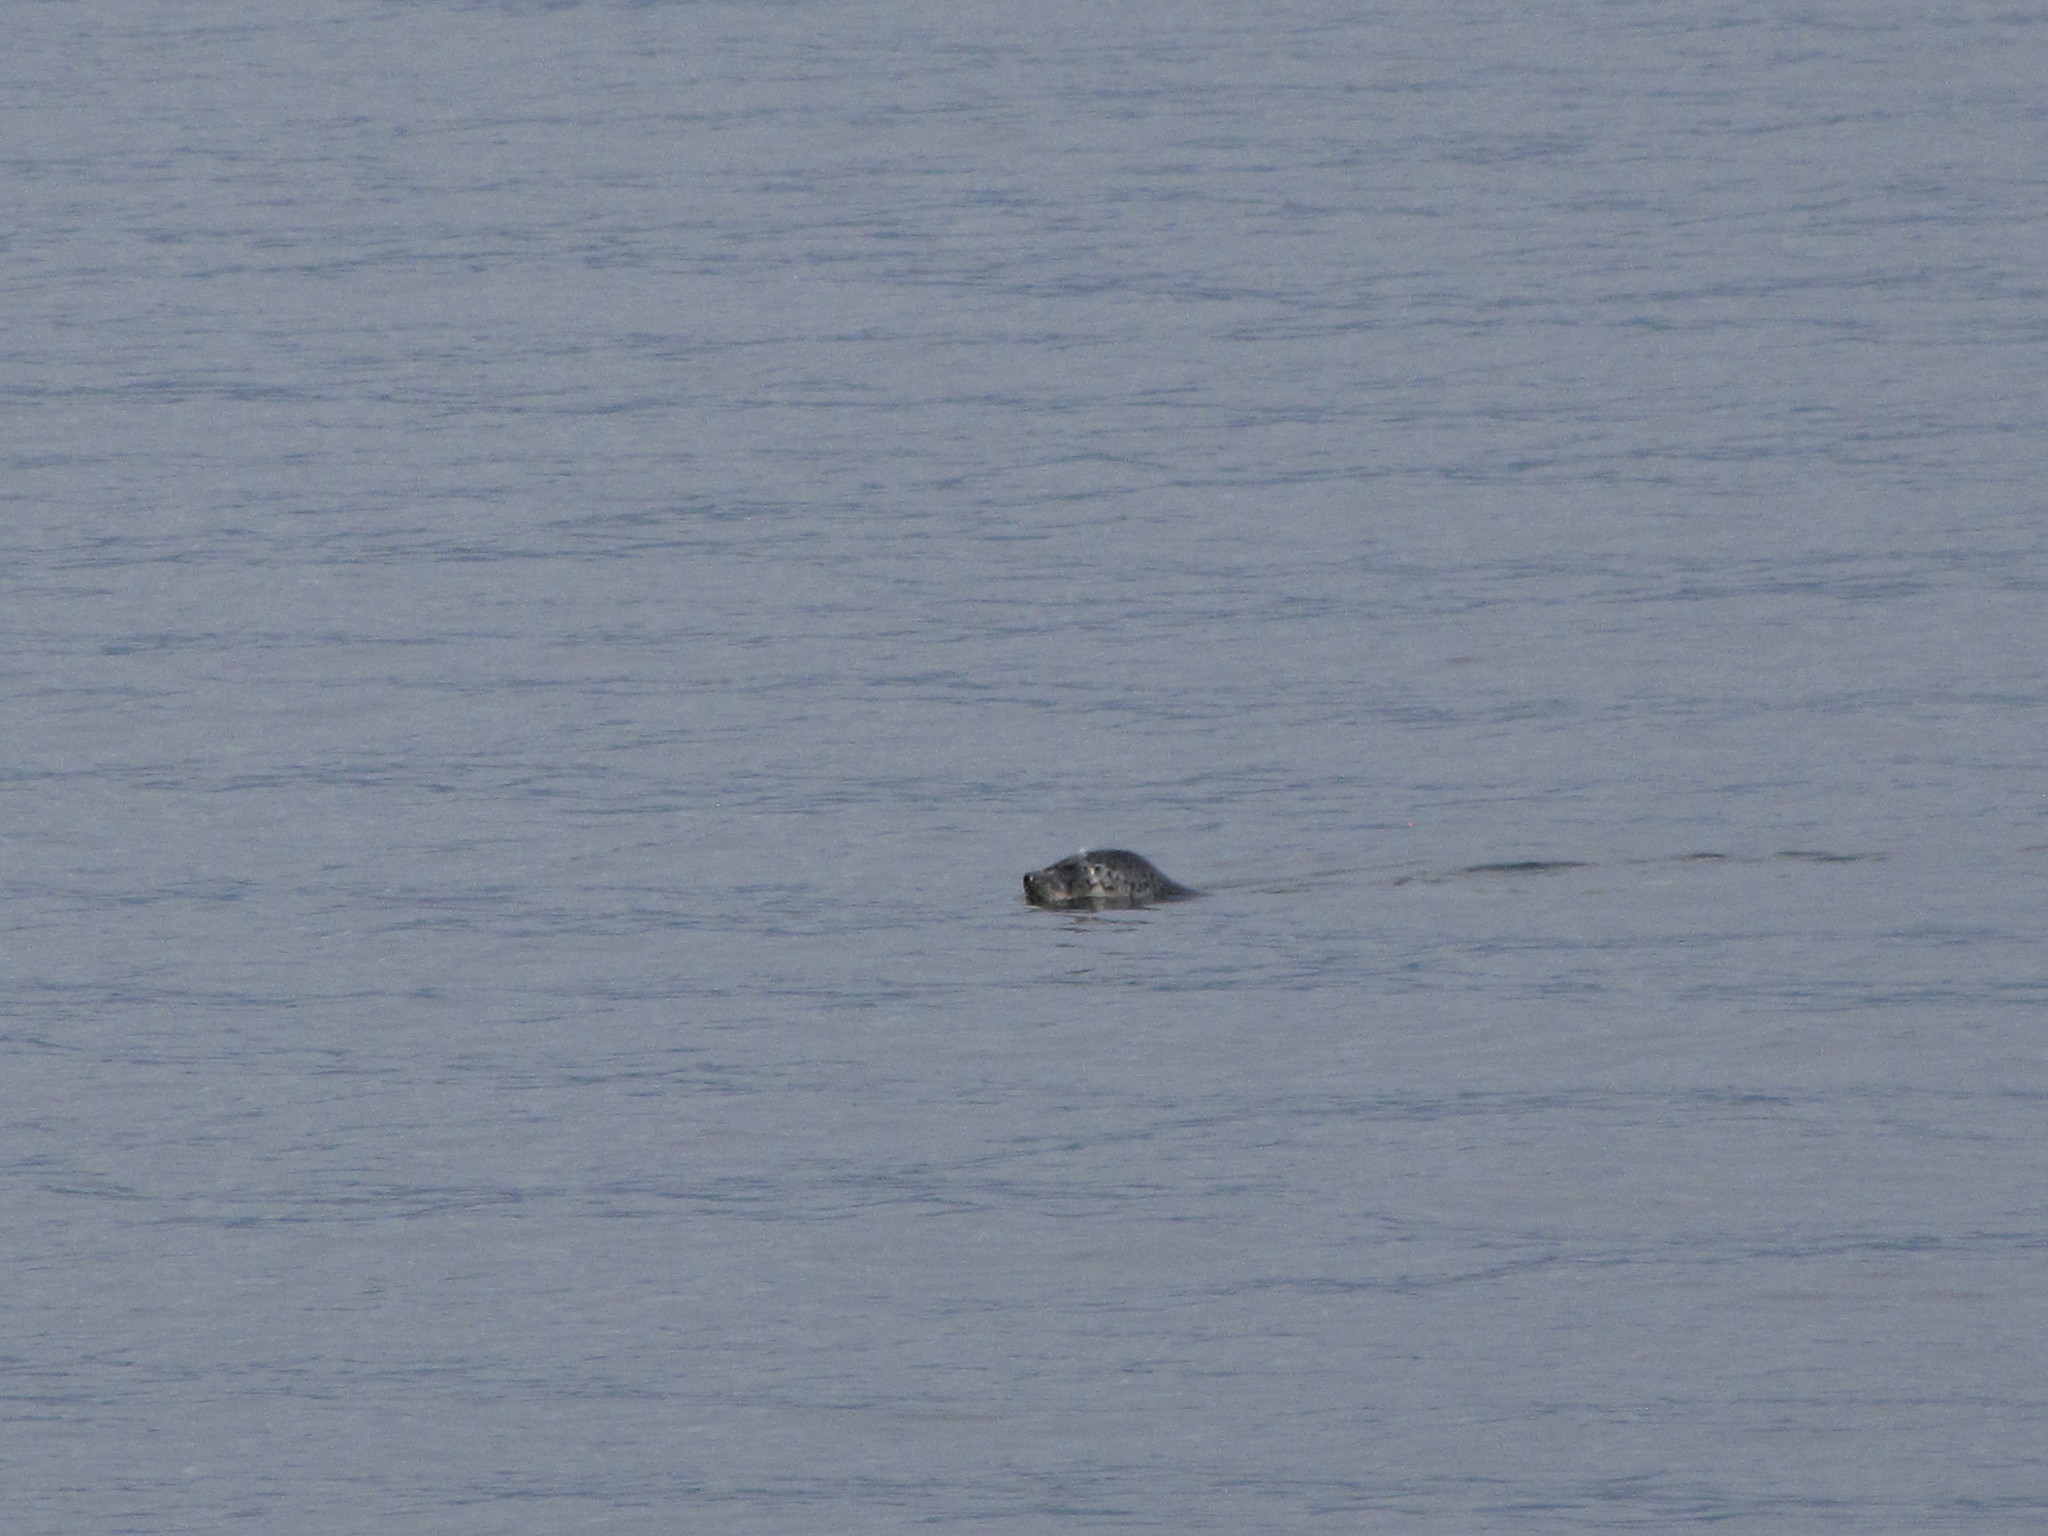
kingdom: Animalia
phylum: Chordata
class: Mammalia
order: Carnivora
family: Phocidae
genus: Phoca
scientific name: Phoca vitulina
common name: Harbor seal
